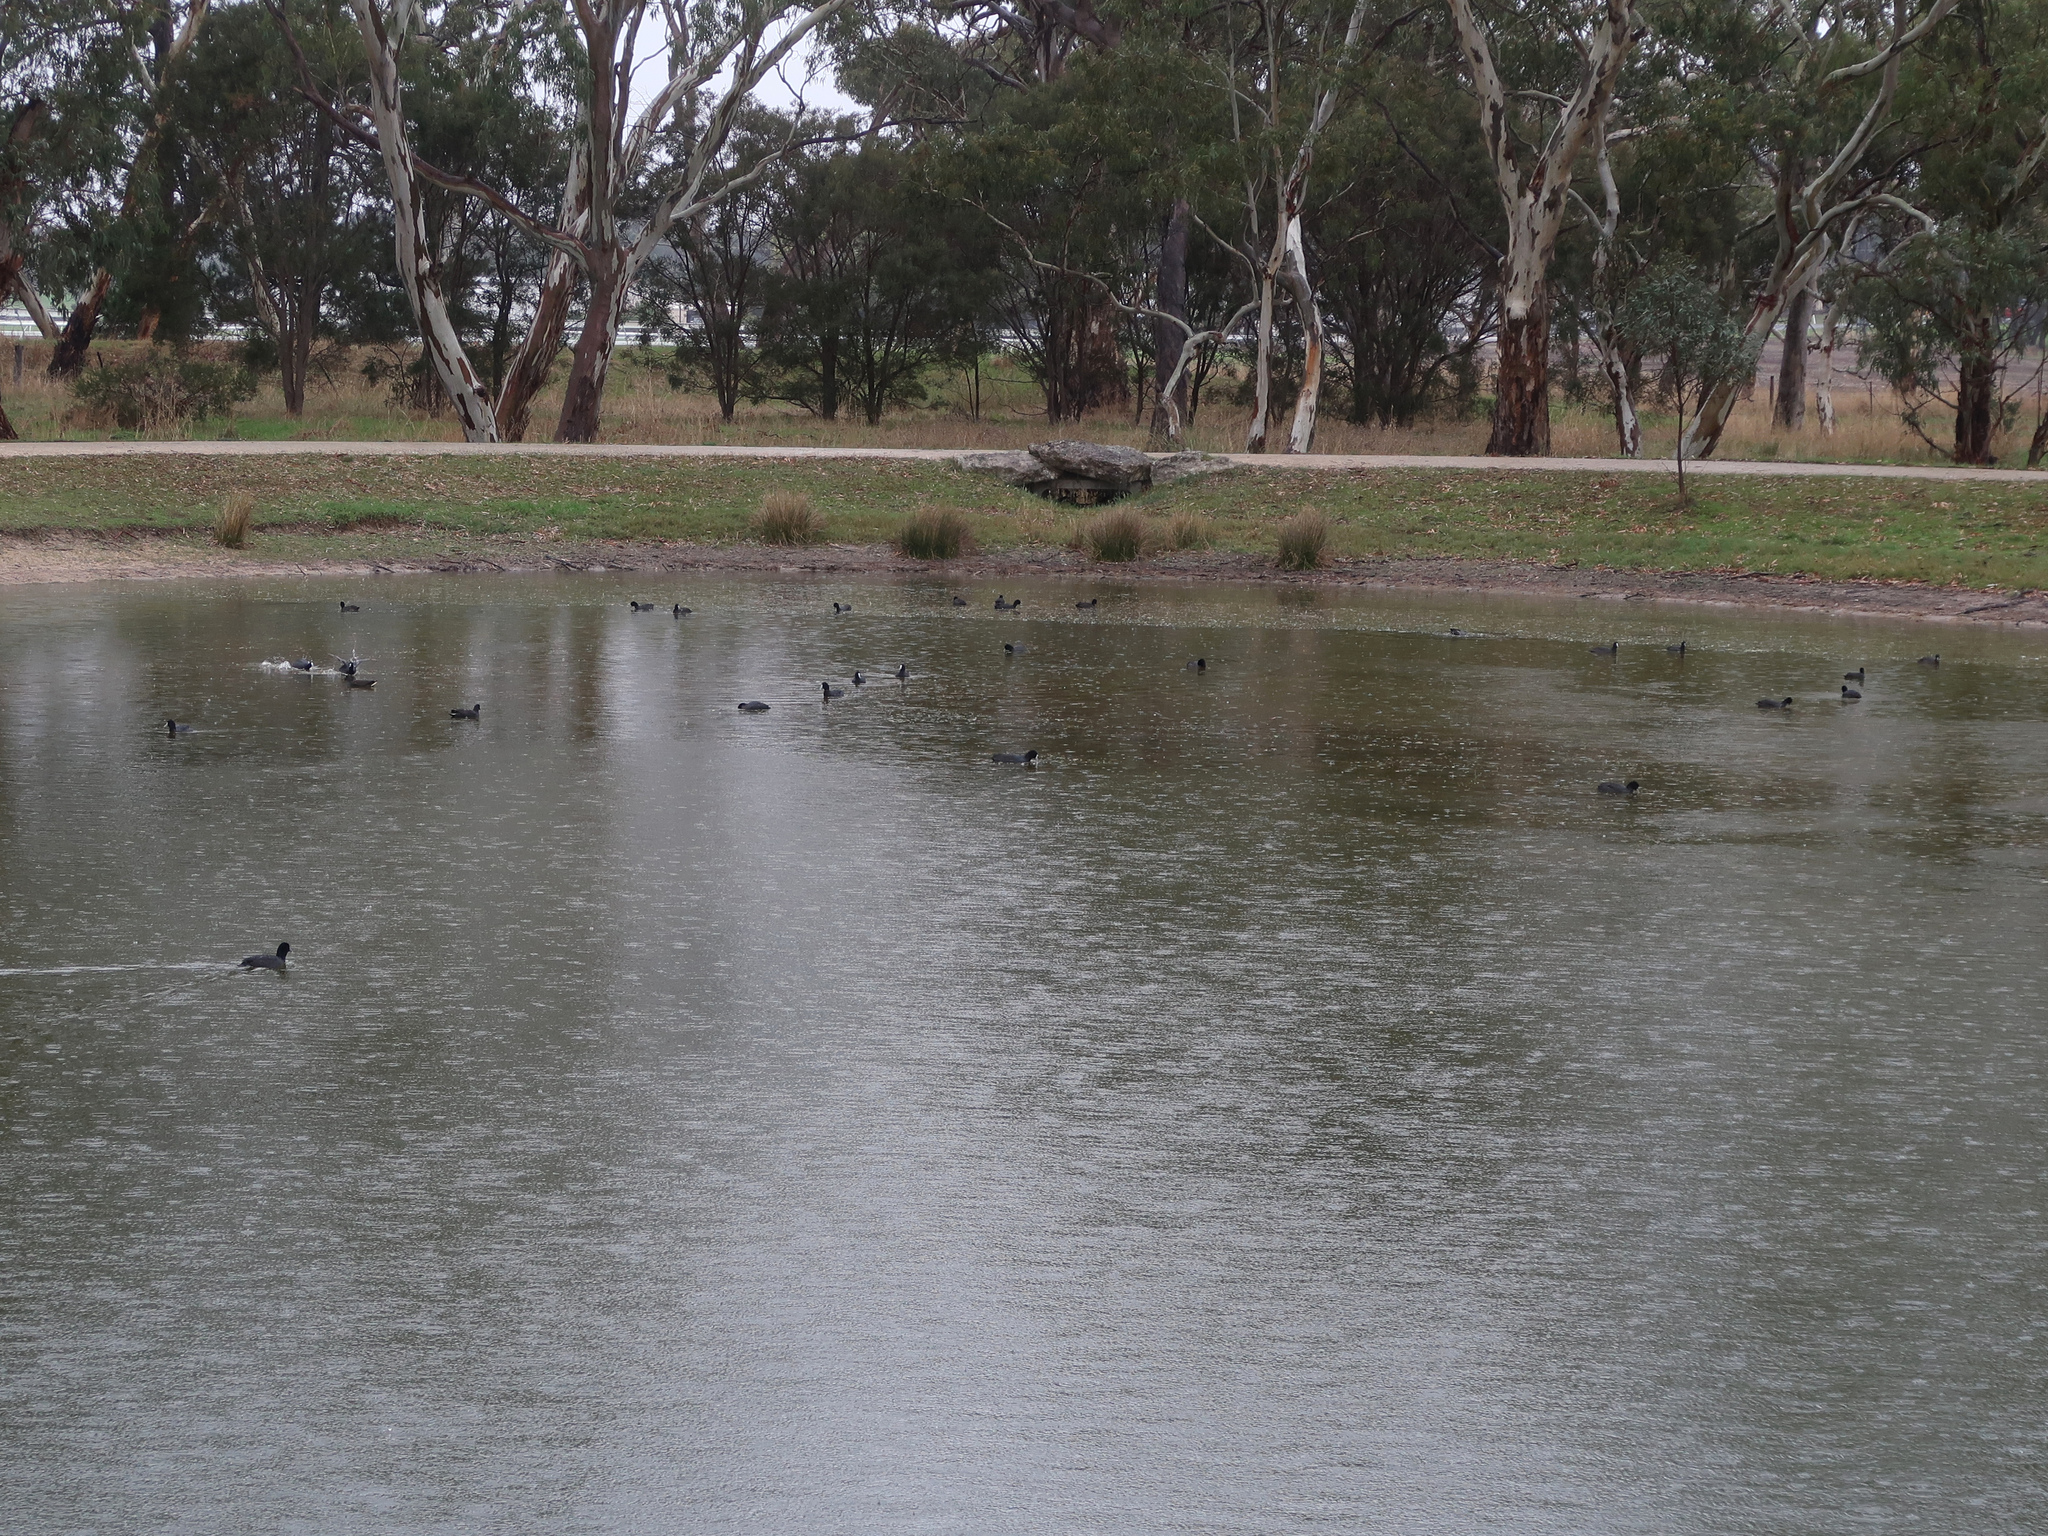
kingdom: Animalia
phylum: Chordata
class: Aves
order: Gruiformes
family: Rallidae
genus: Fulica
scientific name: Fulica atra
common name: Eurasian coot
